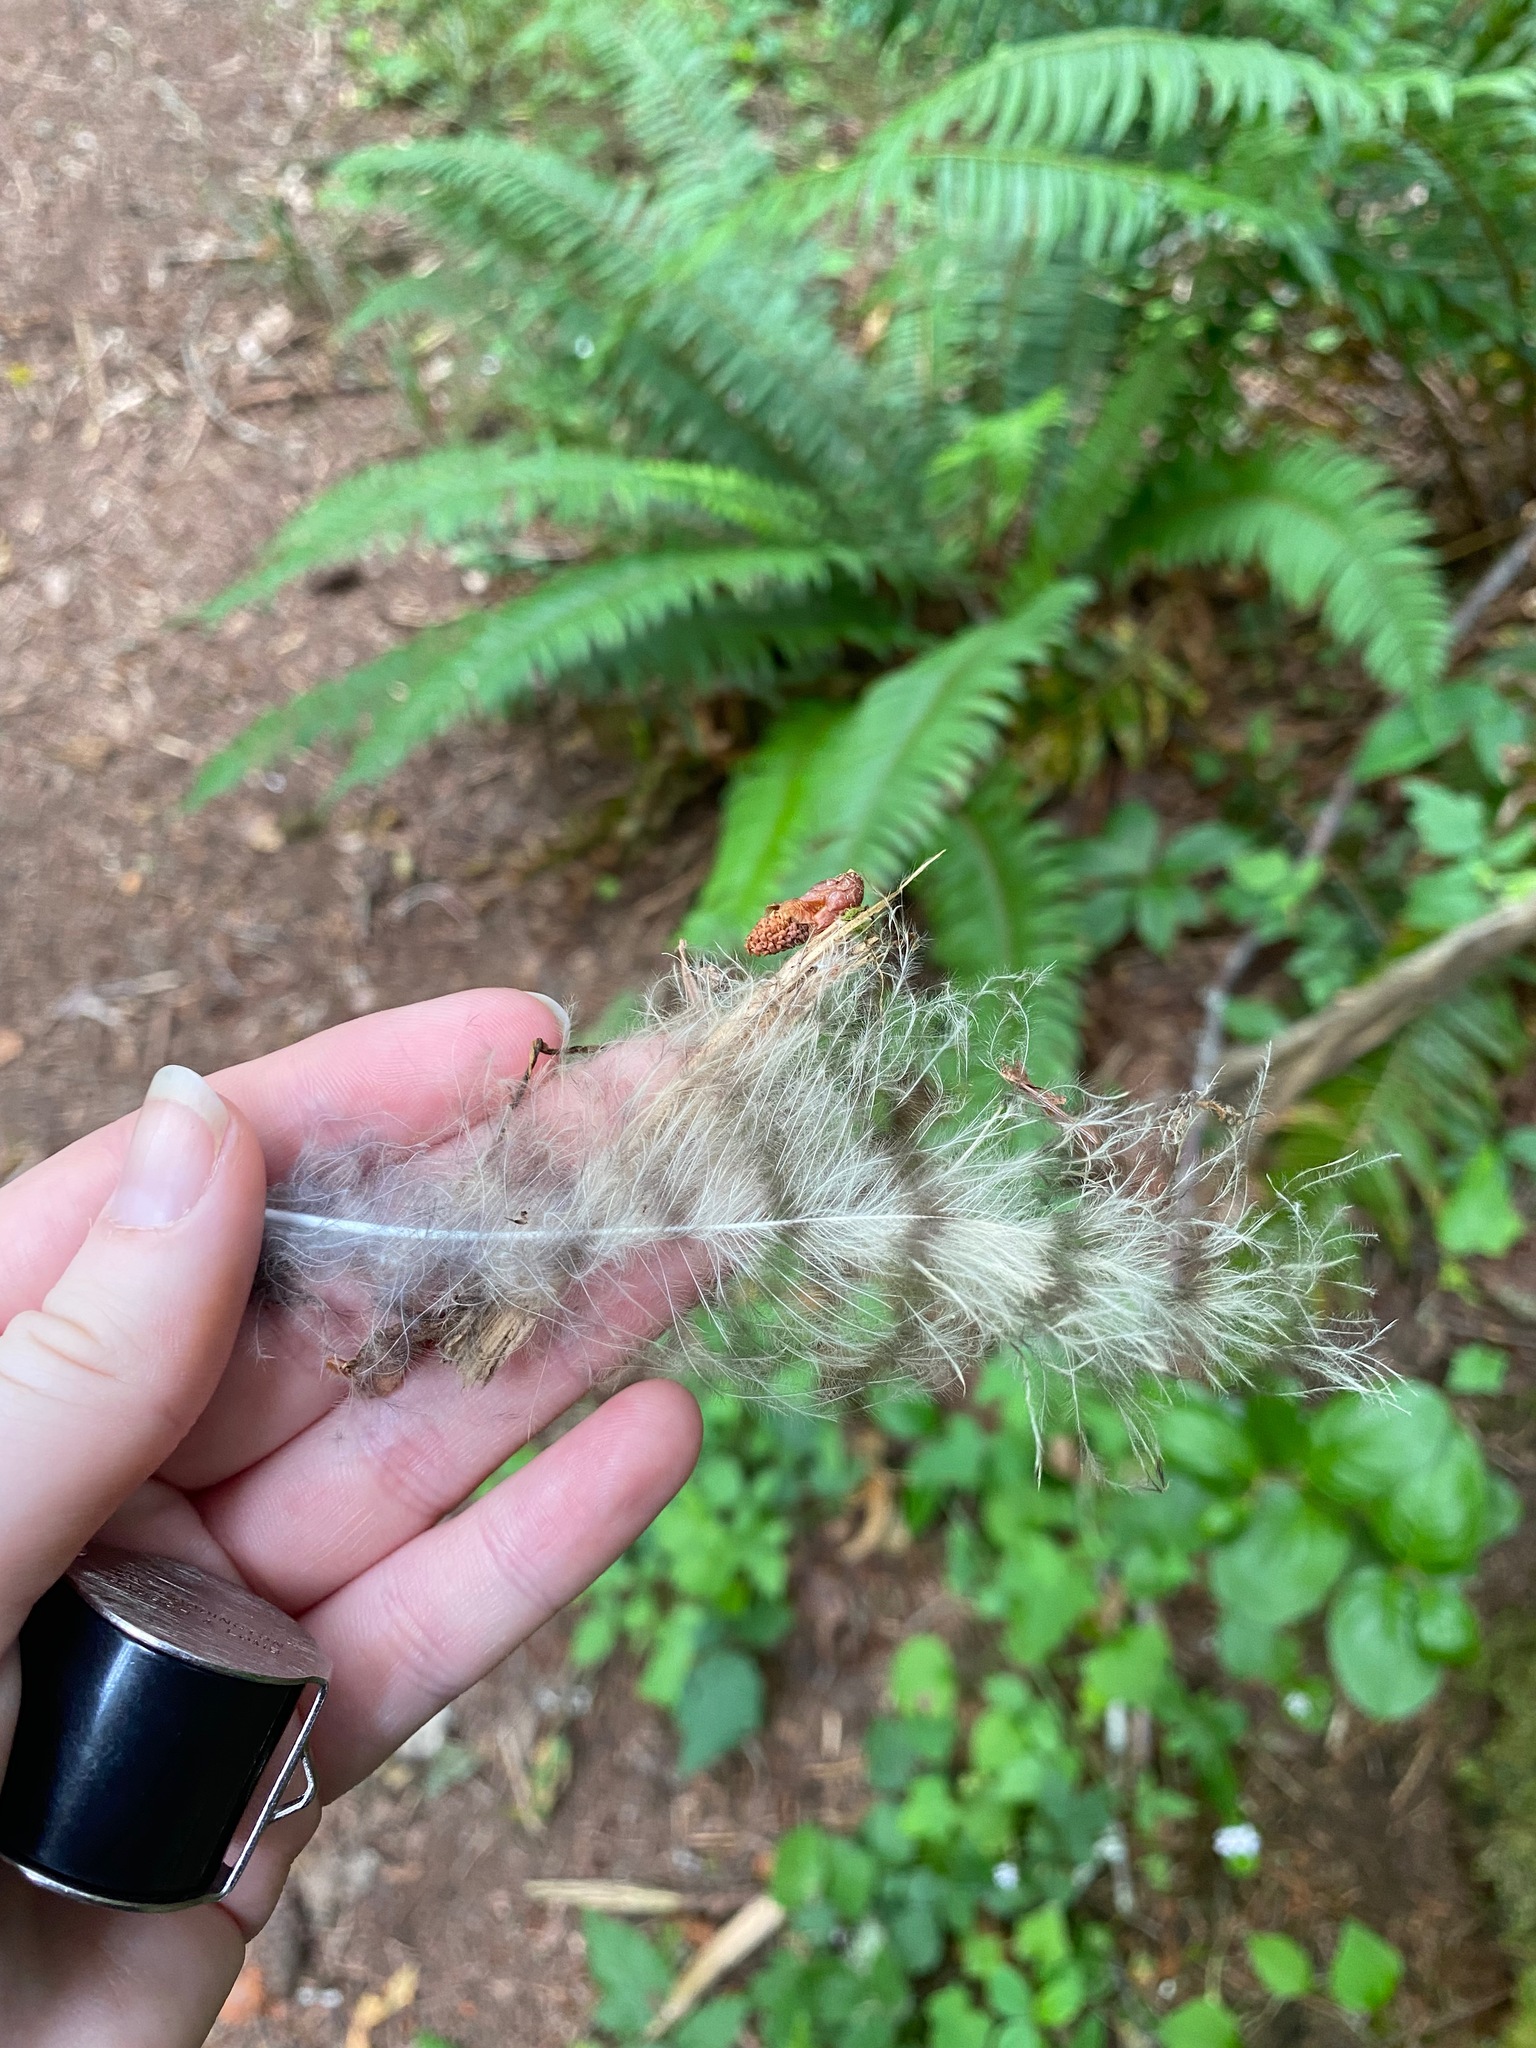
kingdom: Animalia
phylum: Chordata
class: Aves
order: Strigiformes
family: Strigidae
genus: Bubo
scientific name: Bubo virginianus
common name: Great horned owl
